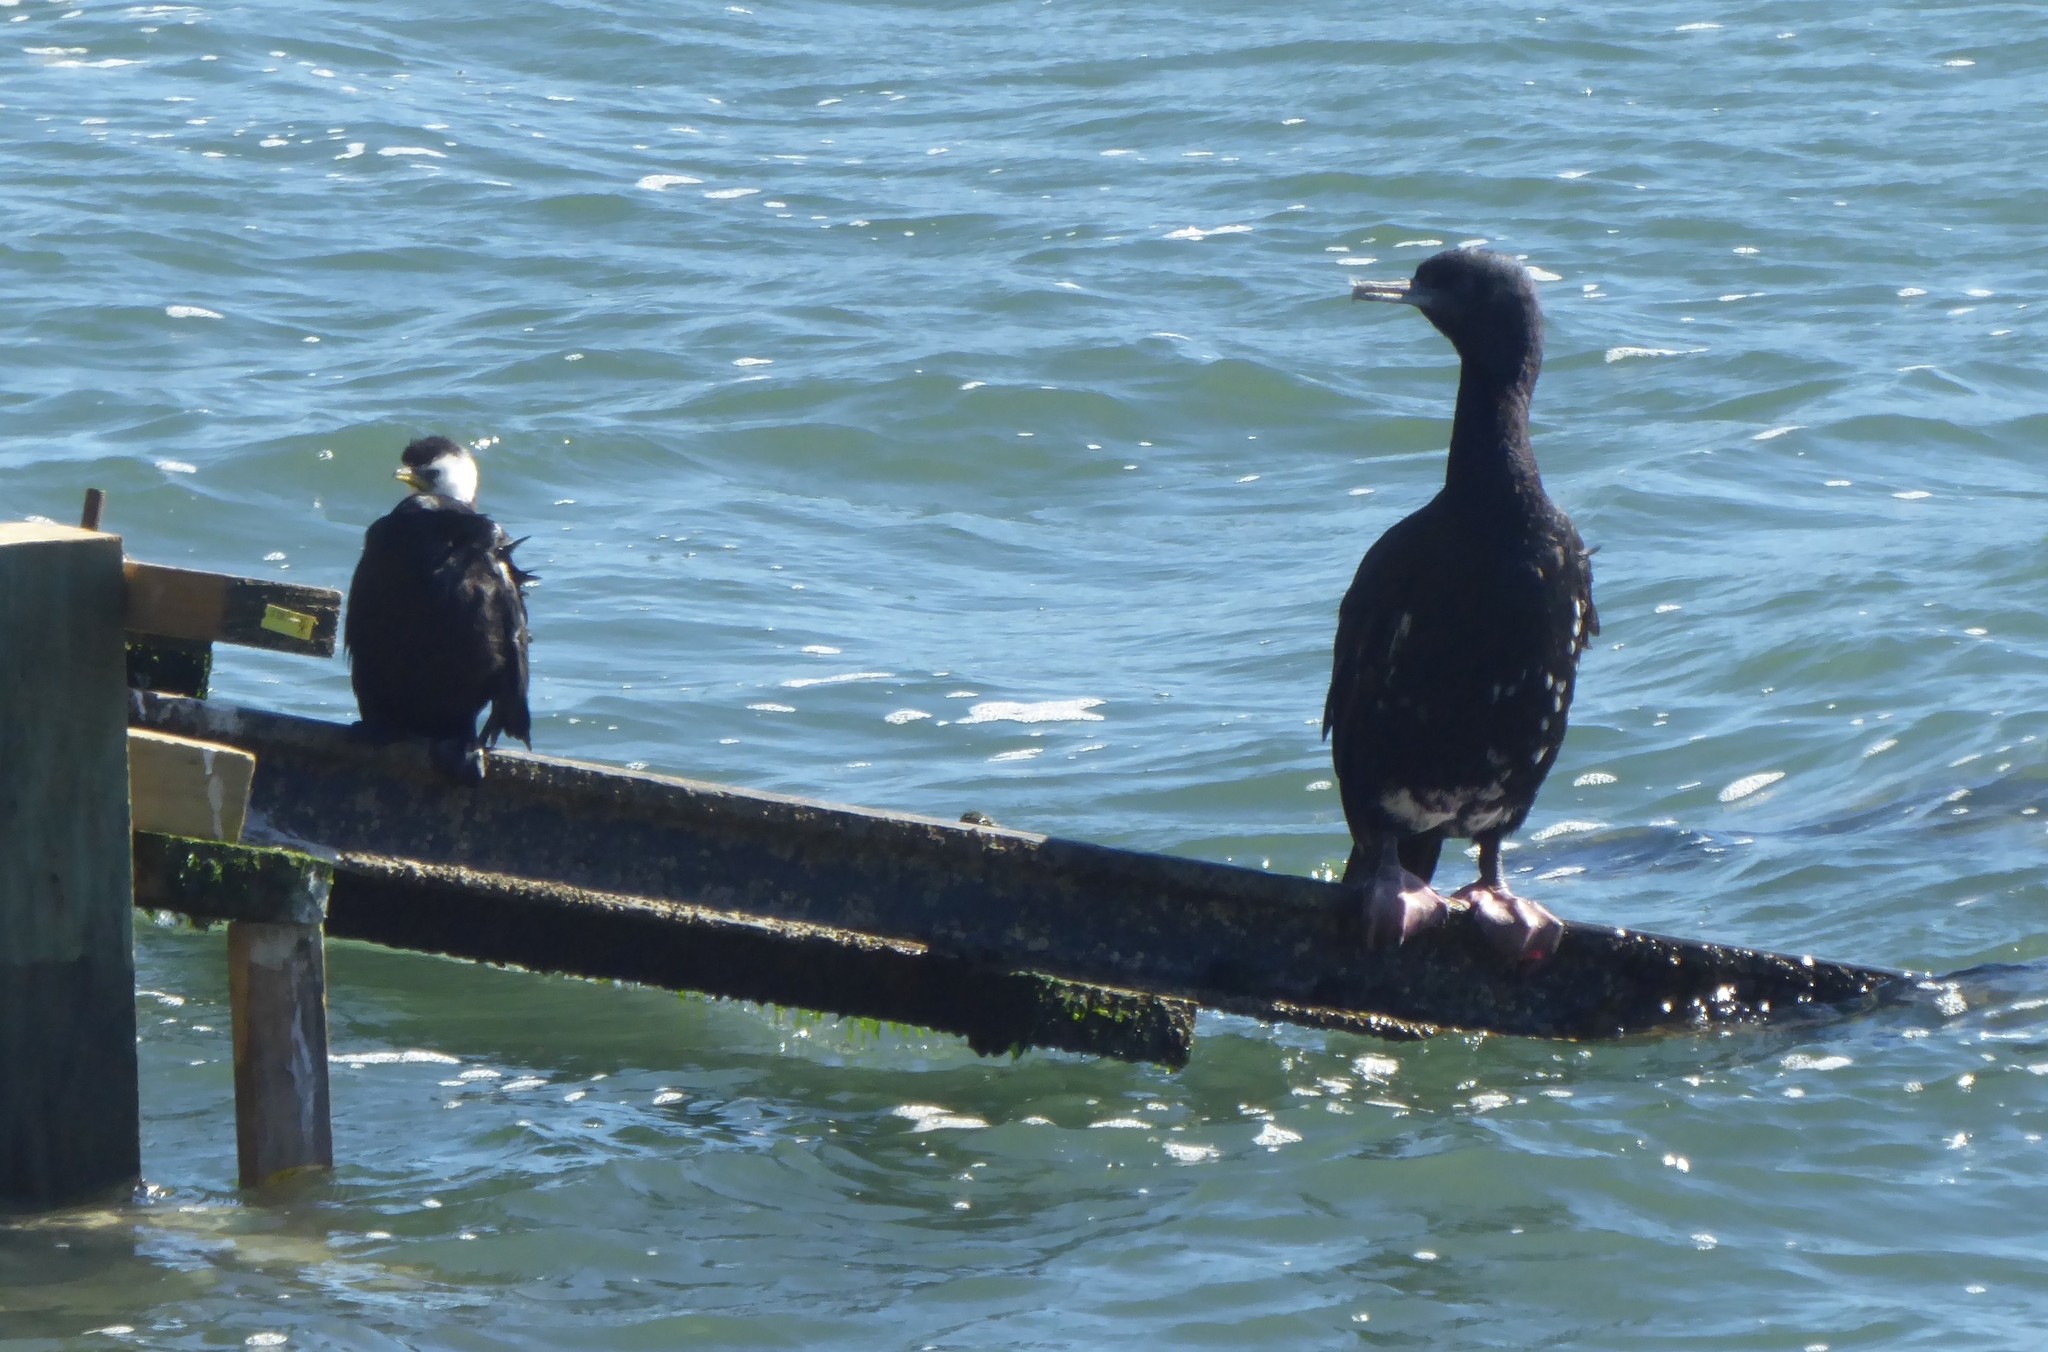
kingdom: Animalia
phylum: Chordata
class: Aves
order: Suliformes
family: Phalacrocoracidae
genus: Leucocarbo
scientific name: Leucocarbo chalconotus
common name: Stewart shag
